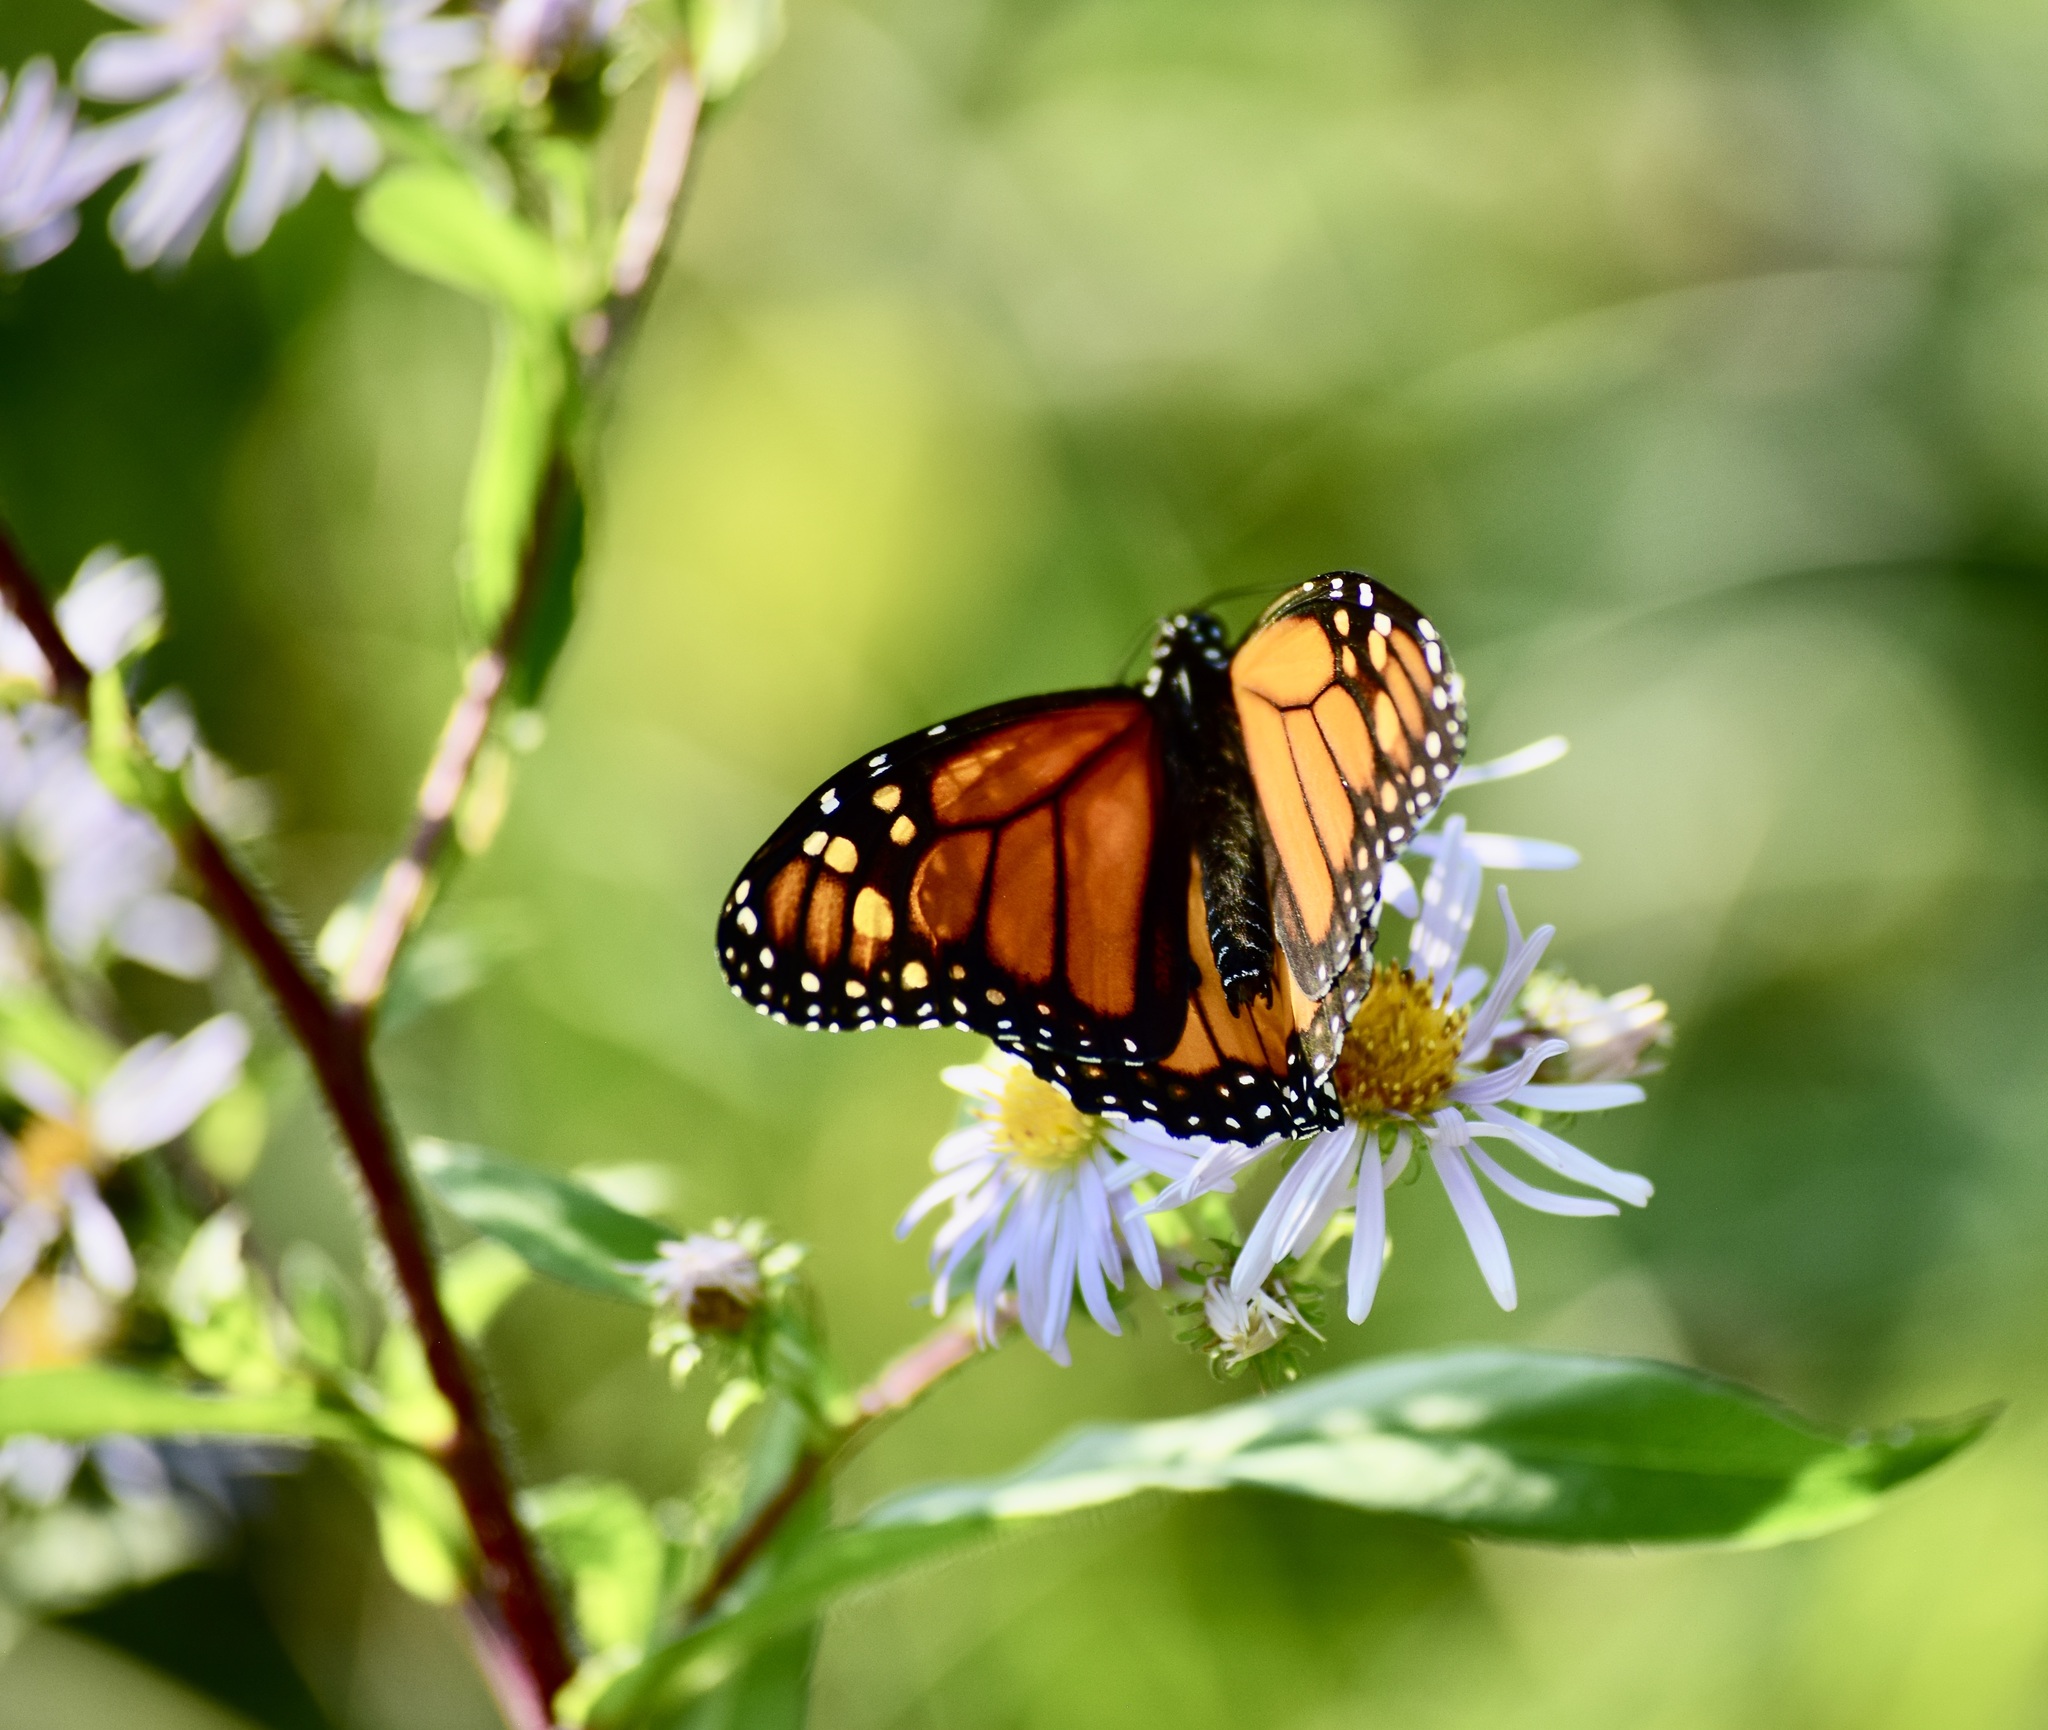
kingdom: Animalia
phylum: Arthropoda
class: Insecta
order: Lepidoptera
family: Nymphalidae
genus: Danaus
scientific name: Danaus plexippus
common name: Monarch
